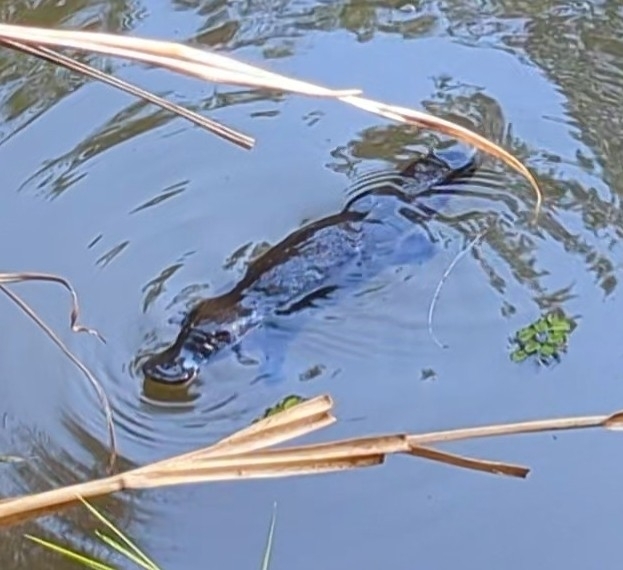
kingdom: Animalia
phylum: Chordata
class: Mammalia
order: Monotremata
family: Ornithorhynchidae
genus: Ornithorhynchus
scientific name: Ornithorhynchus anatinus
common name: Platypus
